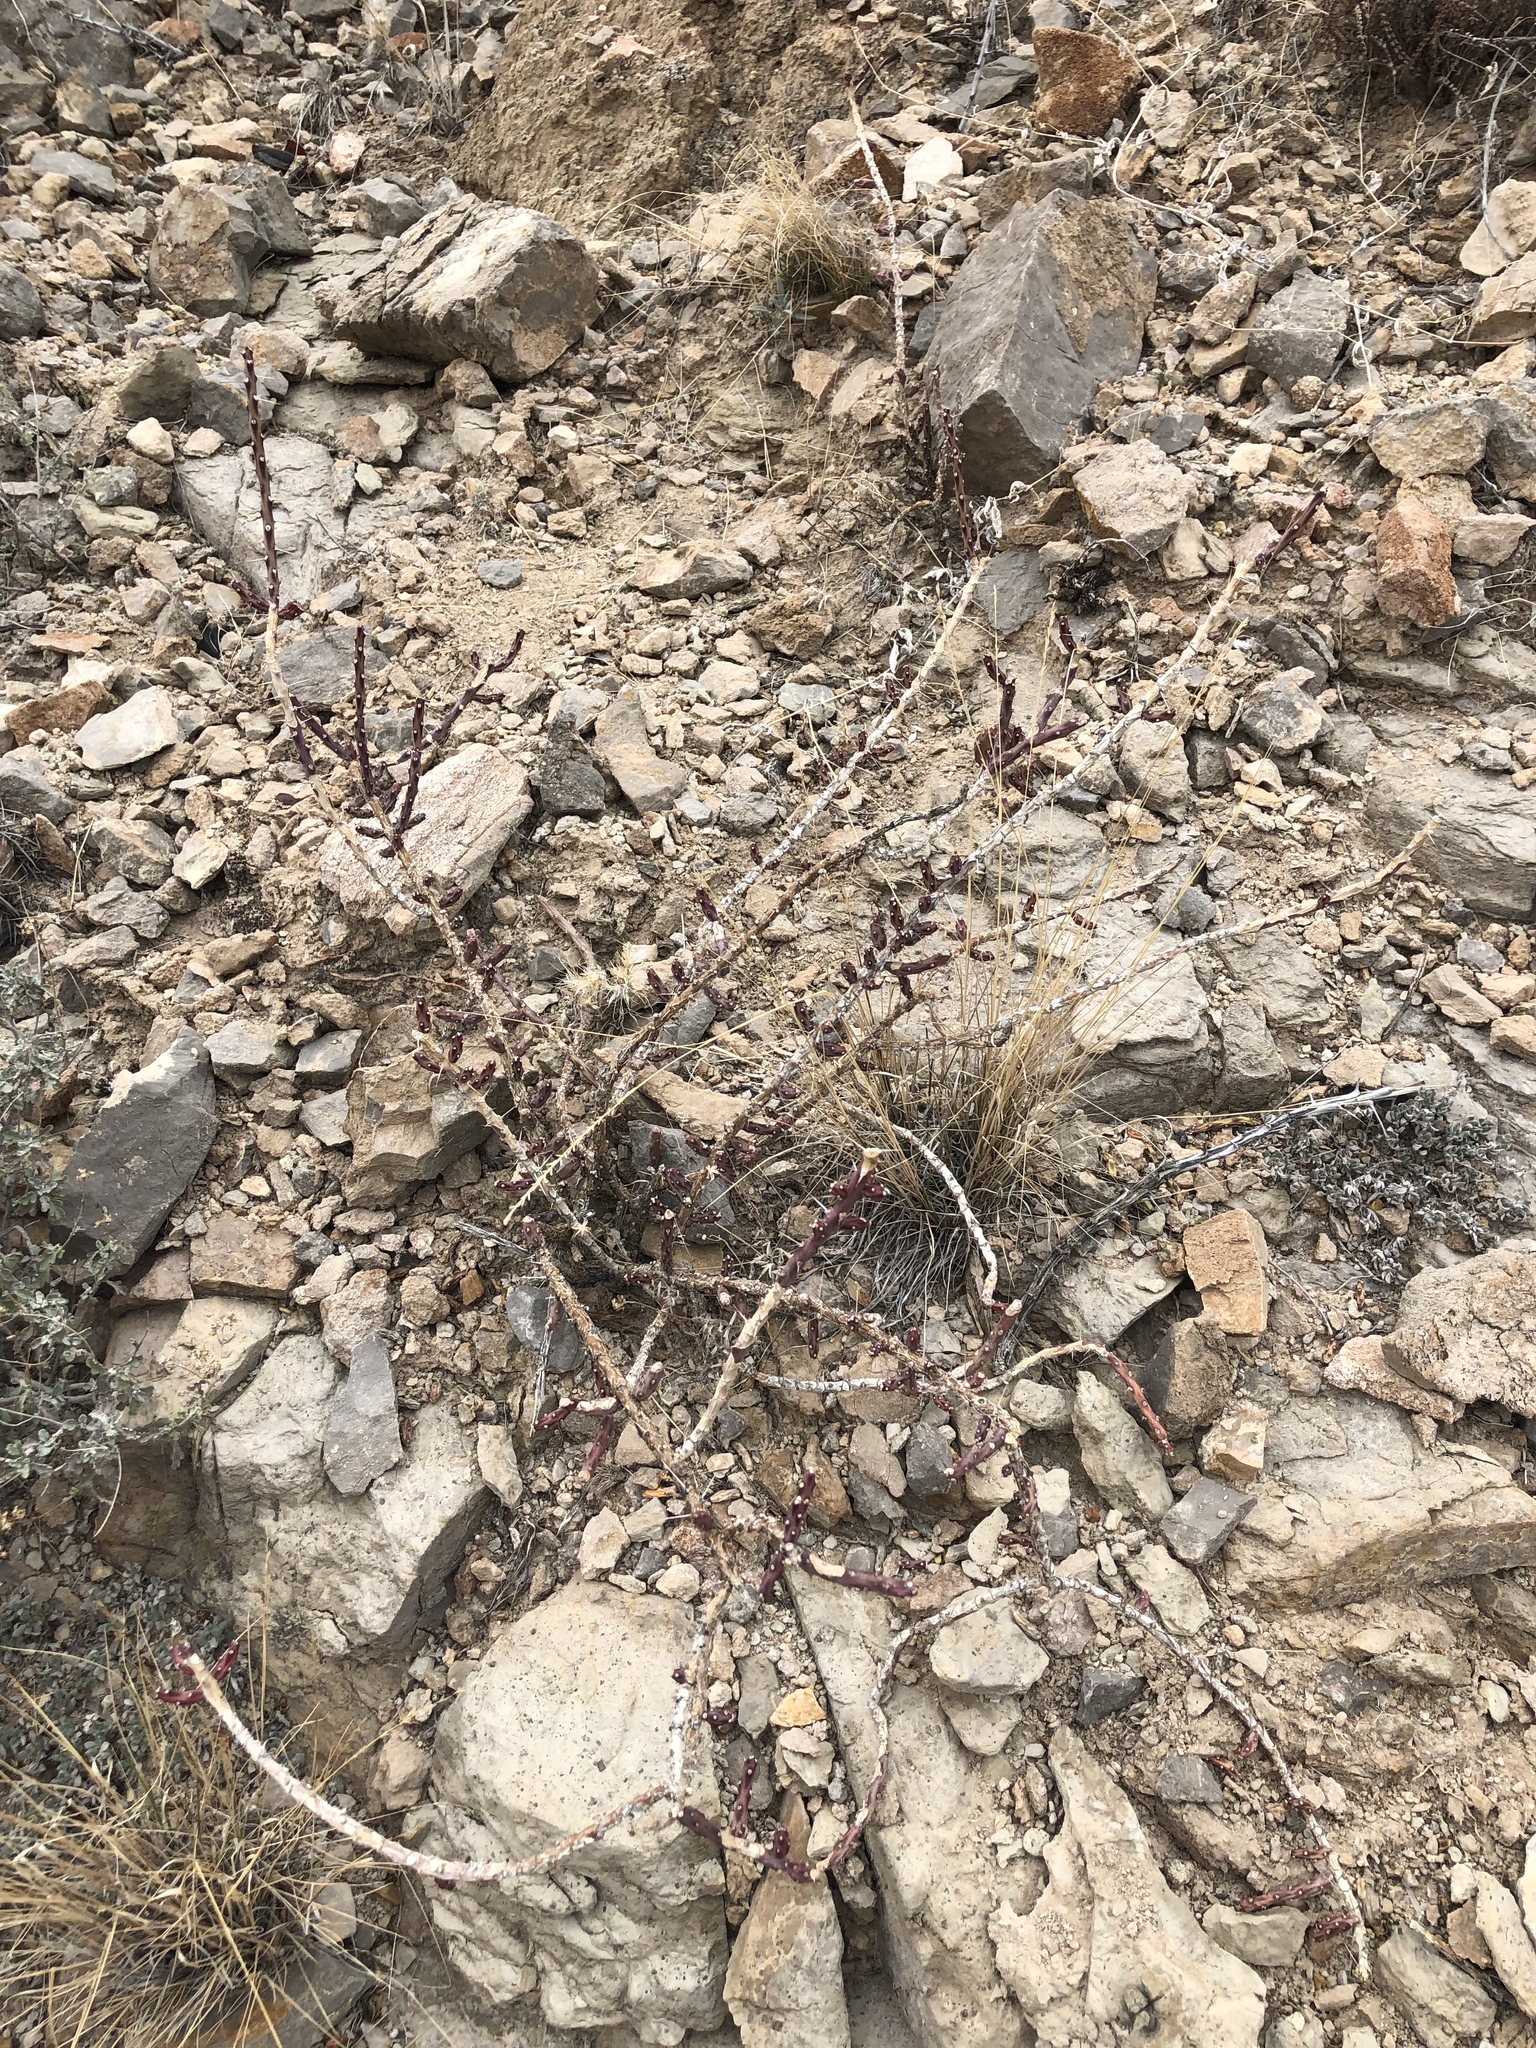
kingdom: Plantae
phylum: Tracheophyta
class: Magnoliopsida
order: Caryophyllales
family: Cactaceae
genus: Cylindropuntia
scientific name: Cylindropuntia leptocaulis
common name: Christmas cactus
